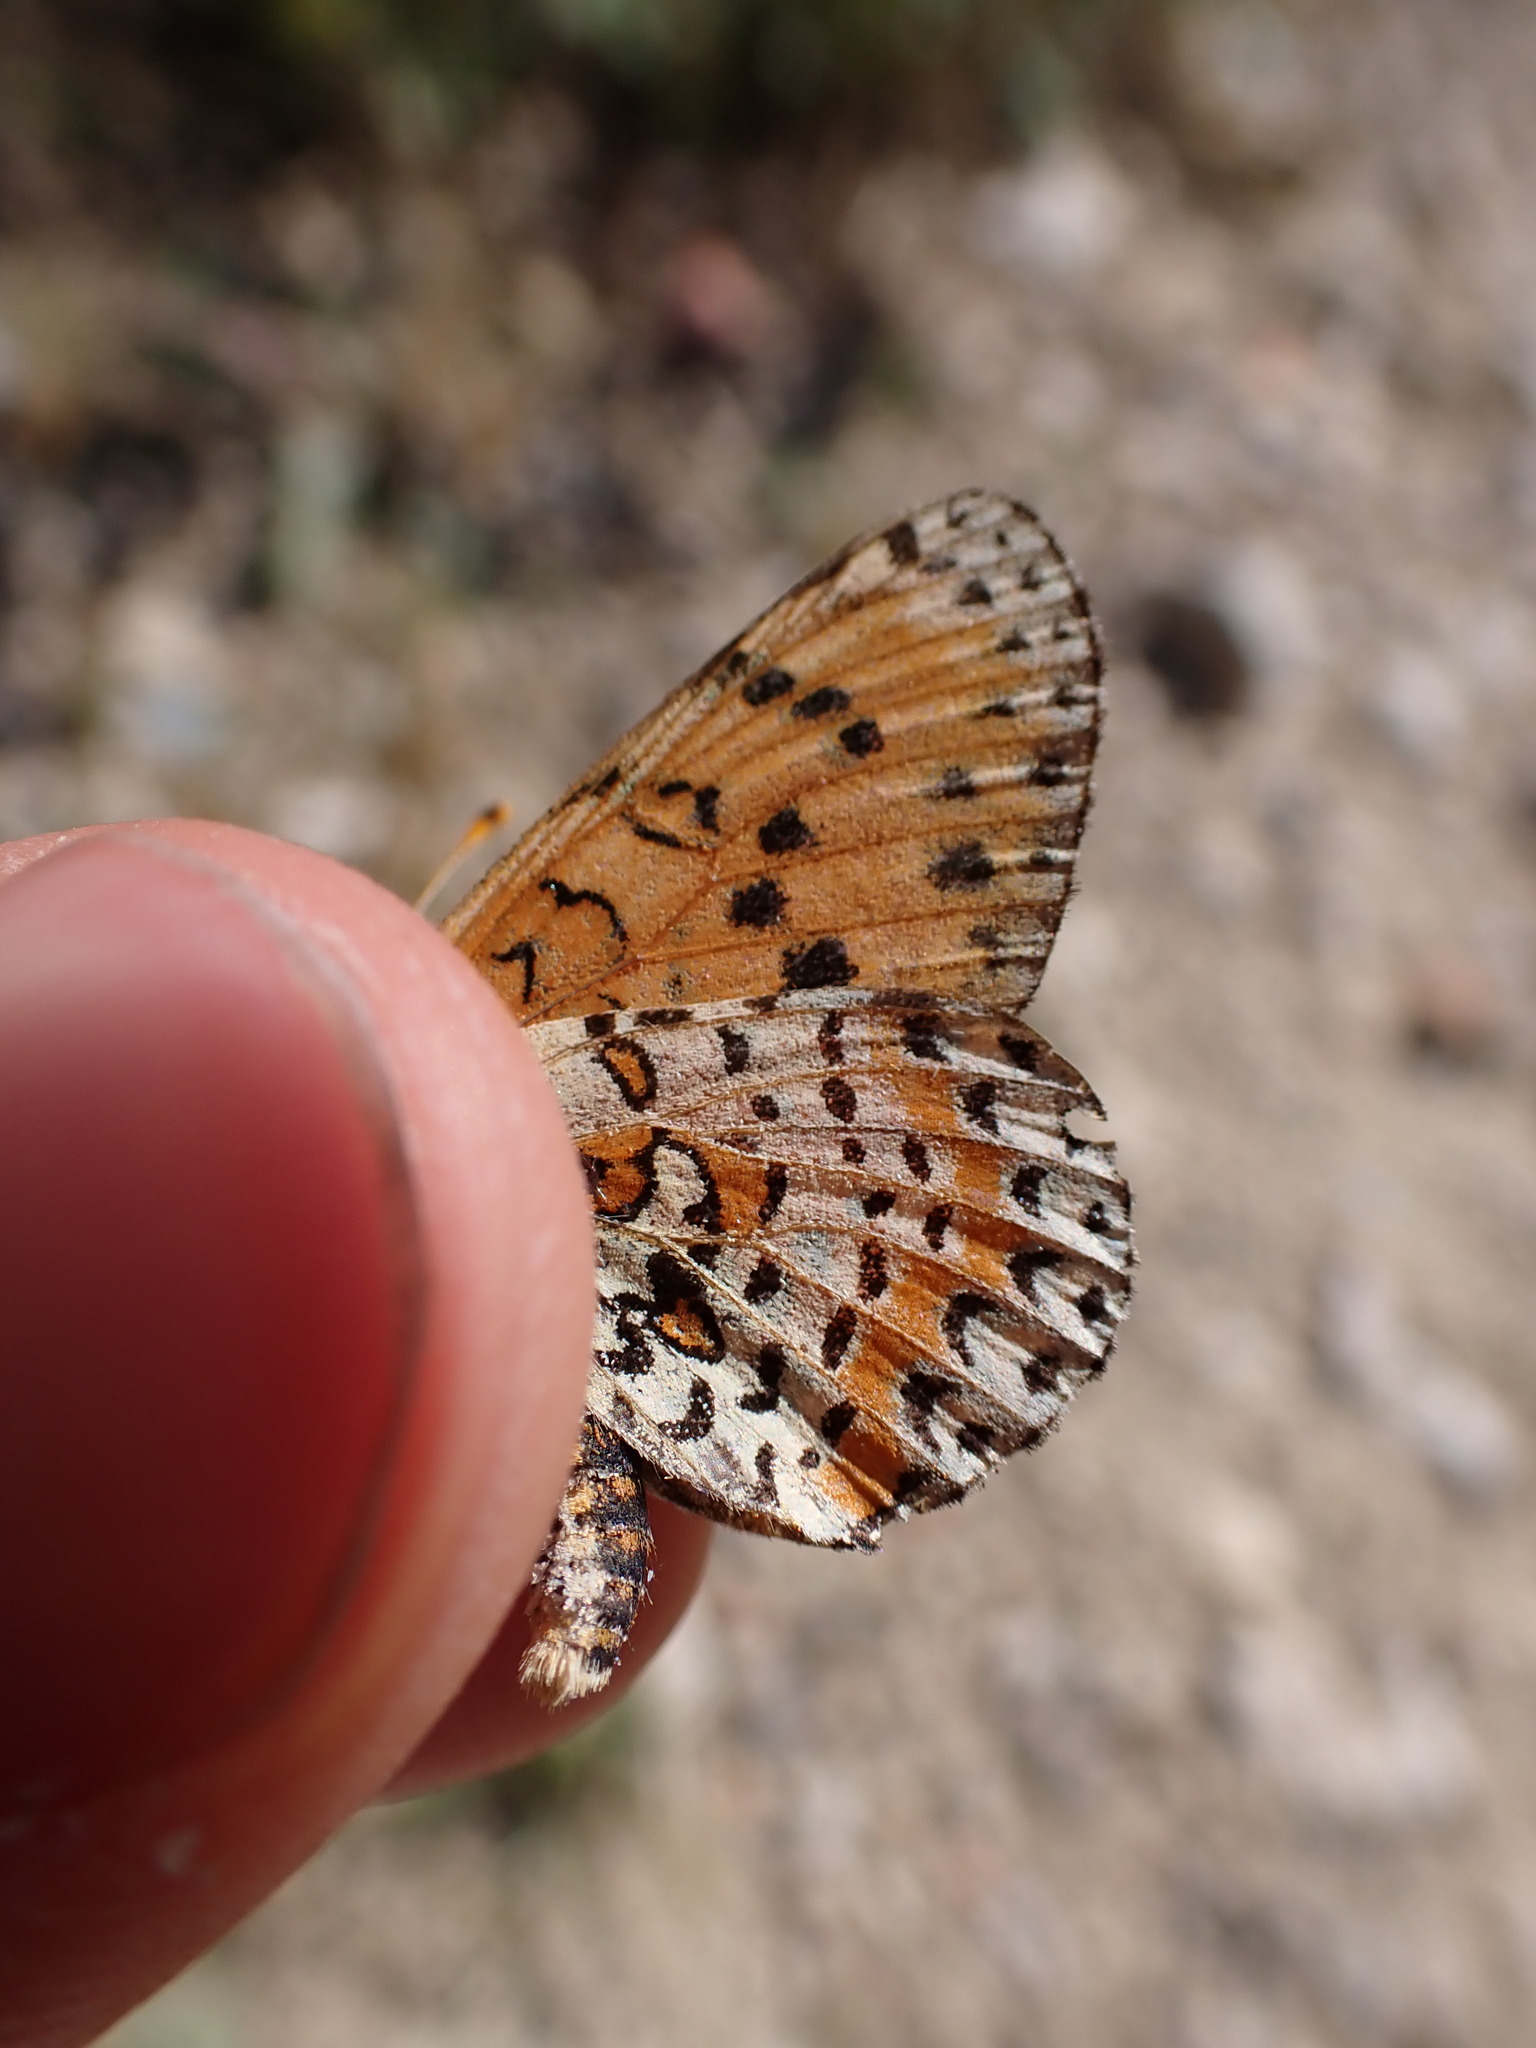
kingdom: Animalia
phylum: Arthropoda
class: Insecta
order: Lepidoptera
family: Nymphalidae
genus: Melitaea
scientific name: Melitaea didyma
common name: Spotted fritillary
